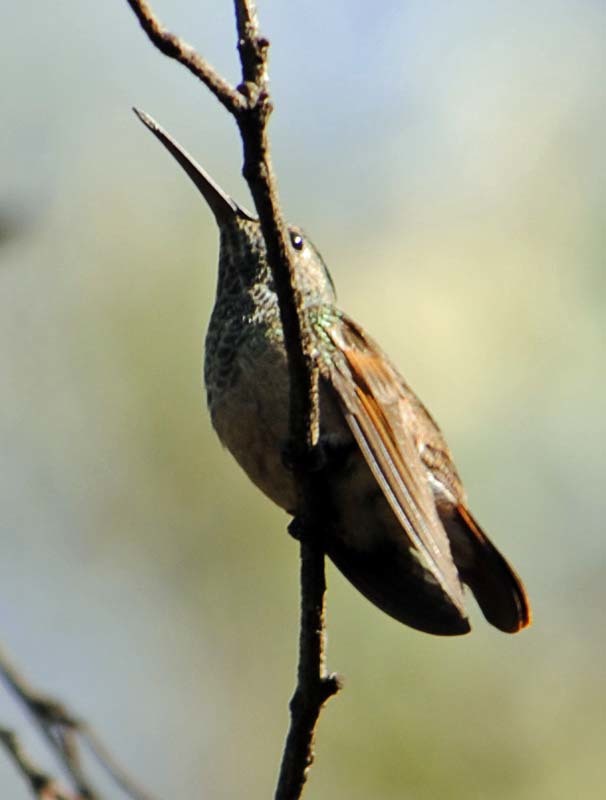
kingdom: Animalia
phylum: Chordata
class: Aves
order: Apodiformes
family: Trochilidae
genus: Saucerottia
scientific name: Saucerottia beryllina
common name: Berylline hummingbird
